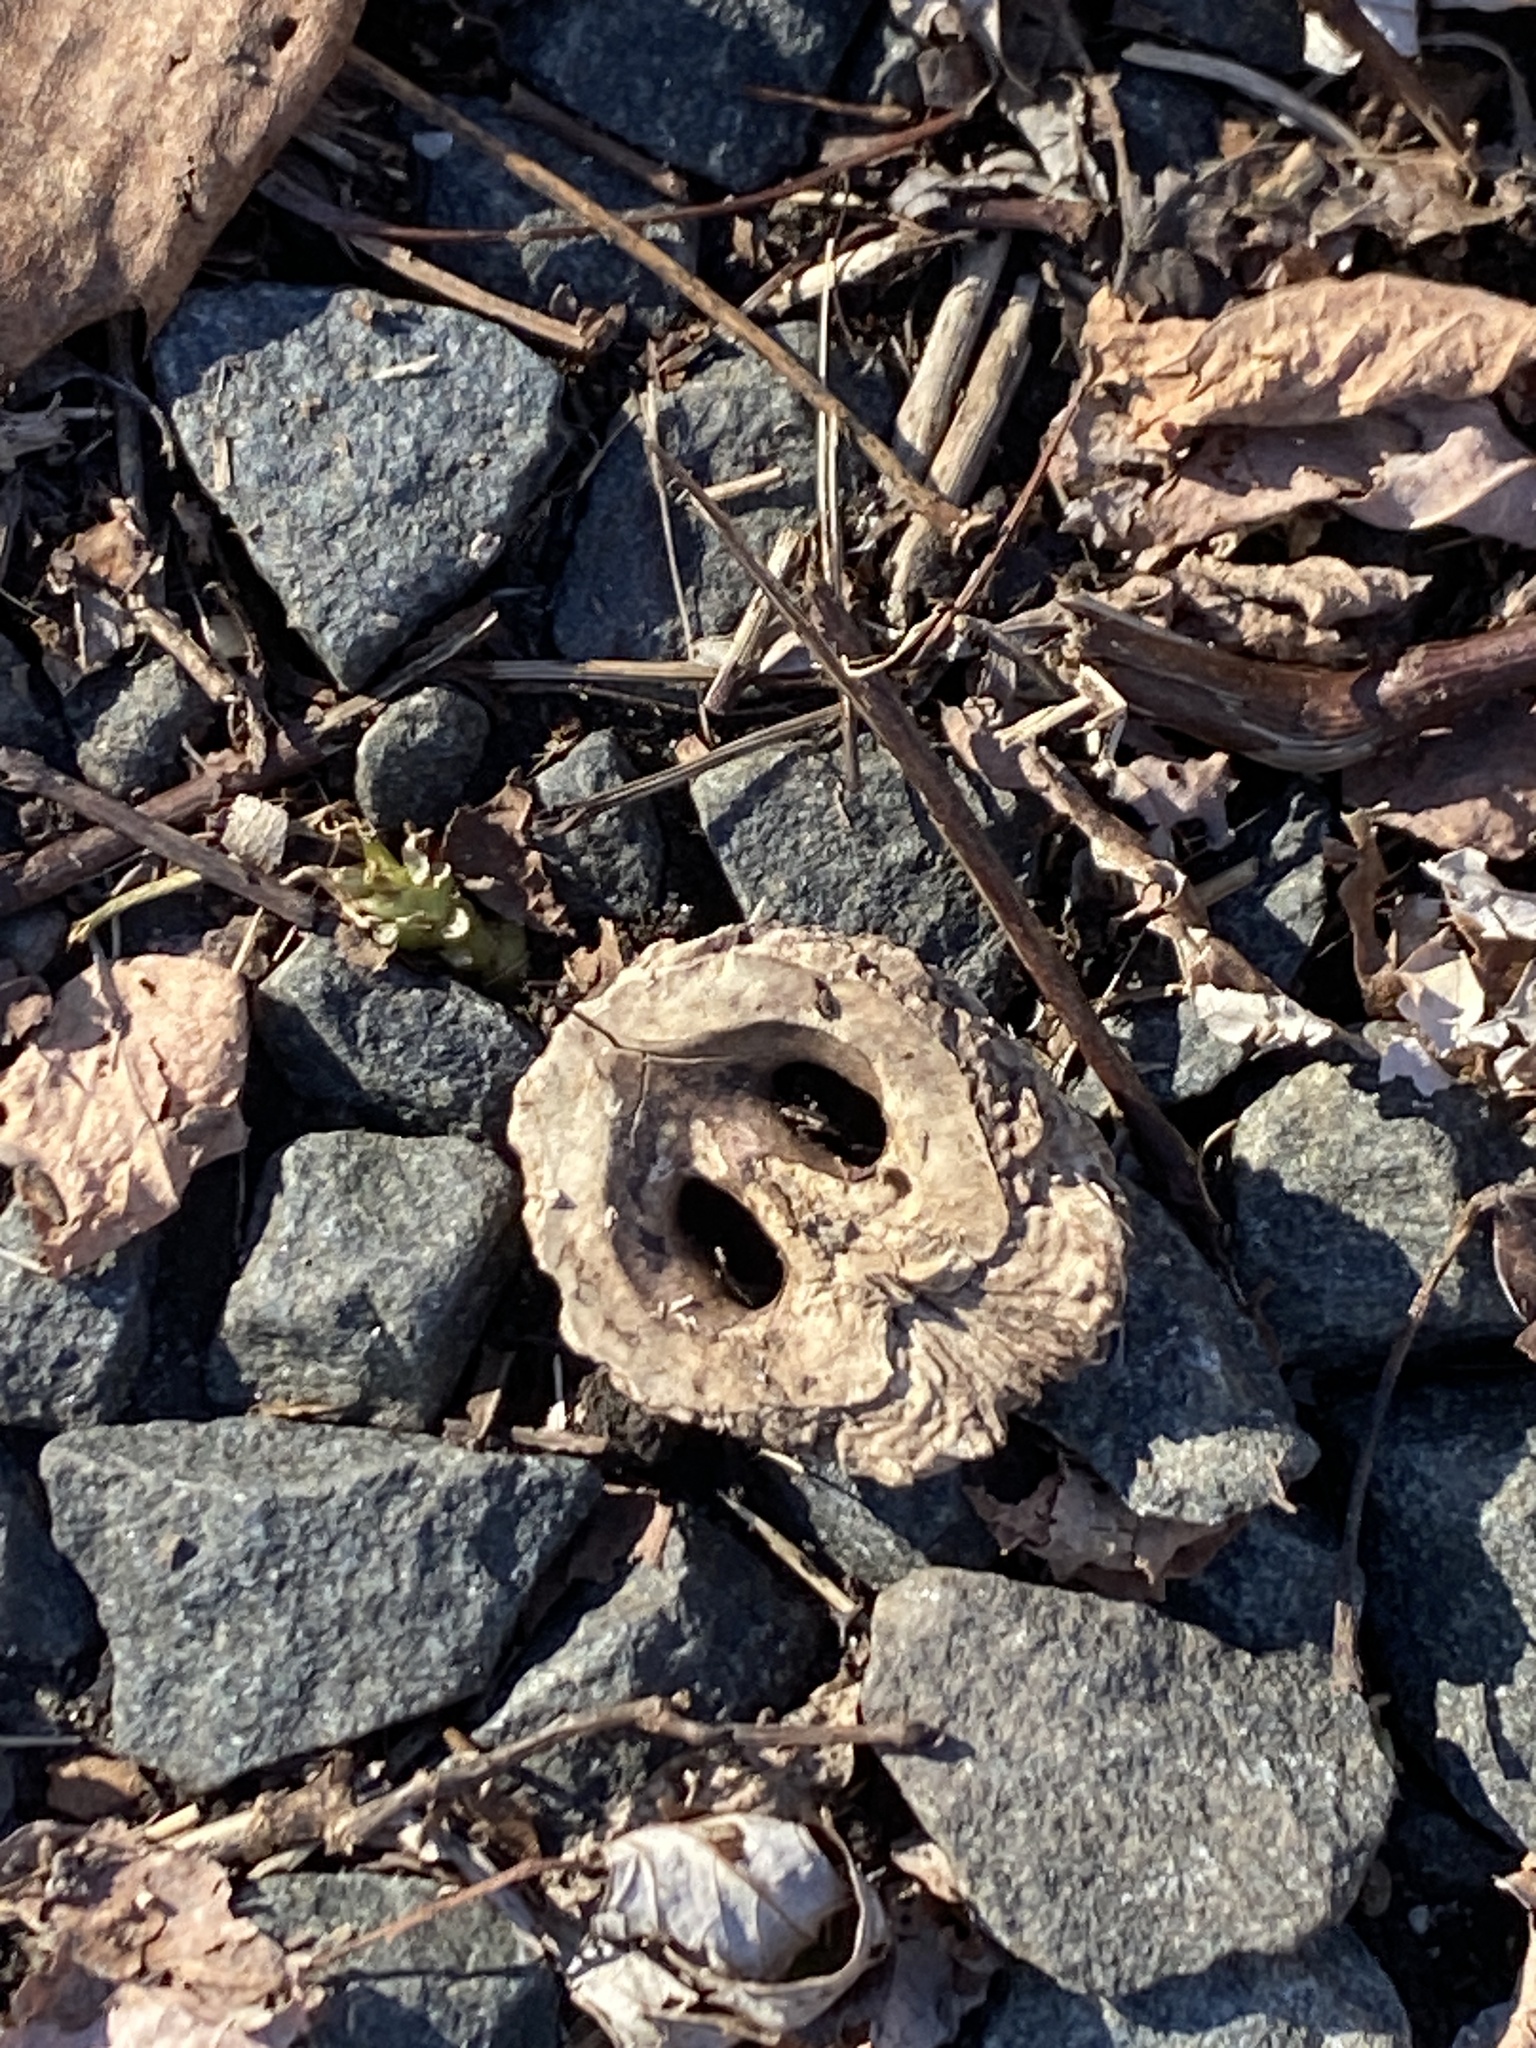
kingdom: Plantae
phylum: Tracheophyta
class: Magnoliopsida
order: Fagales
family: Juglandaceae
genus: Juglans
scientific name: Juglans nigra
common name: Black walnut
